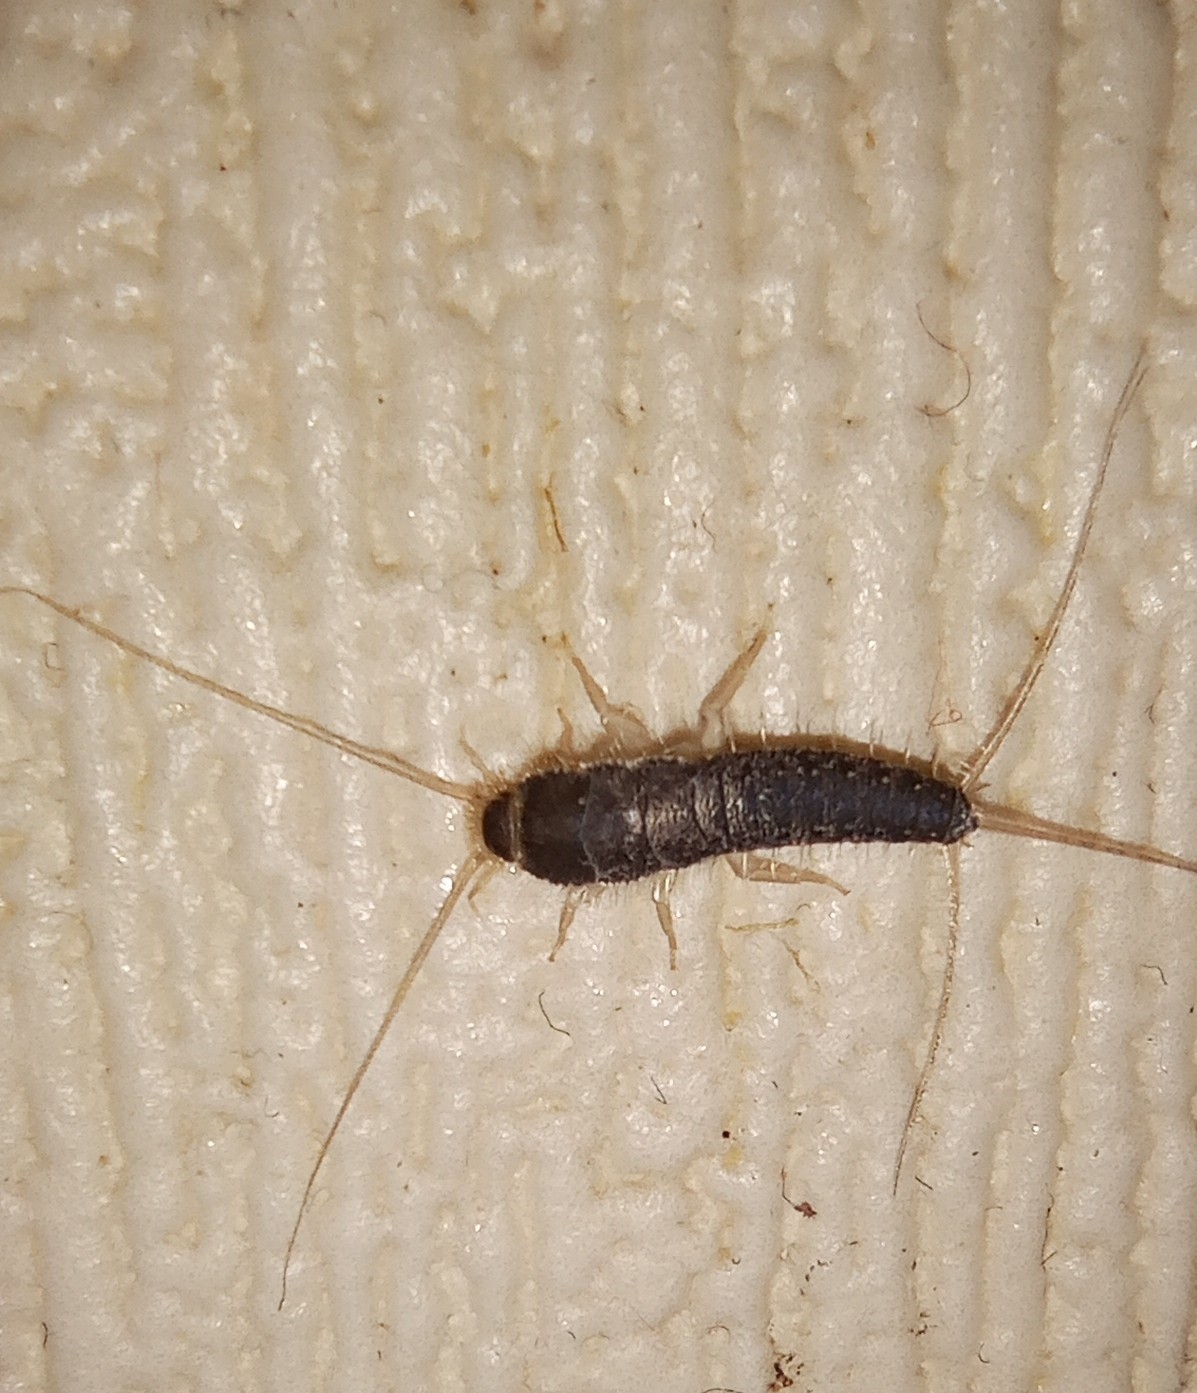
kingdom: Animalia
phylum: Arthropoda
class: Insecta
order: Zygentoma
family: Lepismatidae
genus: Ctenolepisma
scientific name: Ctenolepisma longicaudatum
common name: Silverfish
